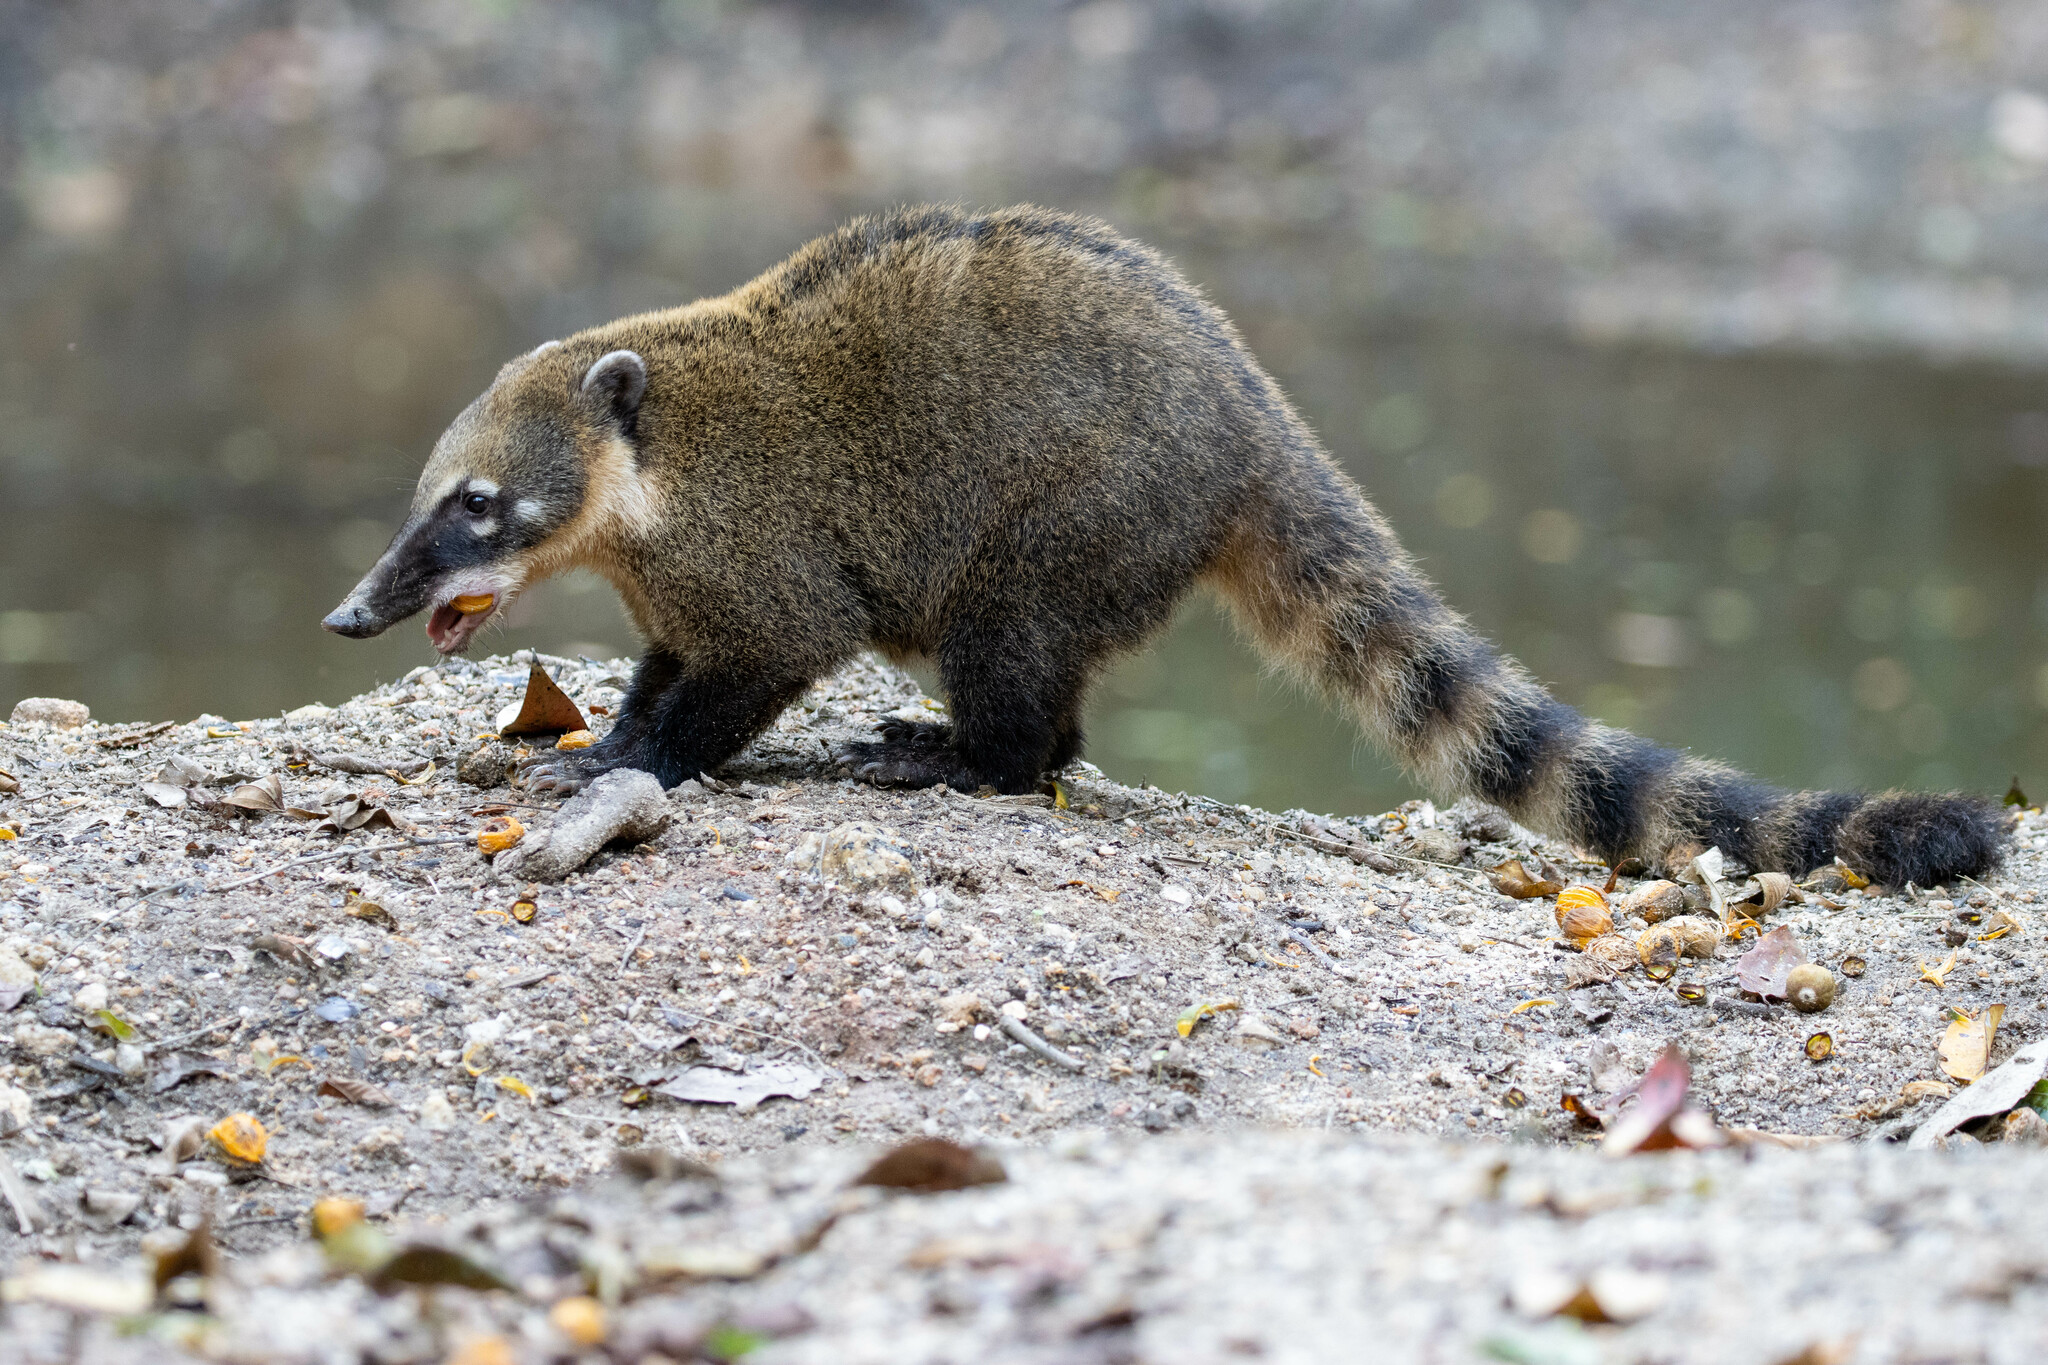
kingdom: Animalia
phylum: Chordata
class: Mammalia
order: Carnivora
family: Procyonidae
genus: Nasua
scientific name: Nasua nasua
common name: South american coati
